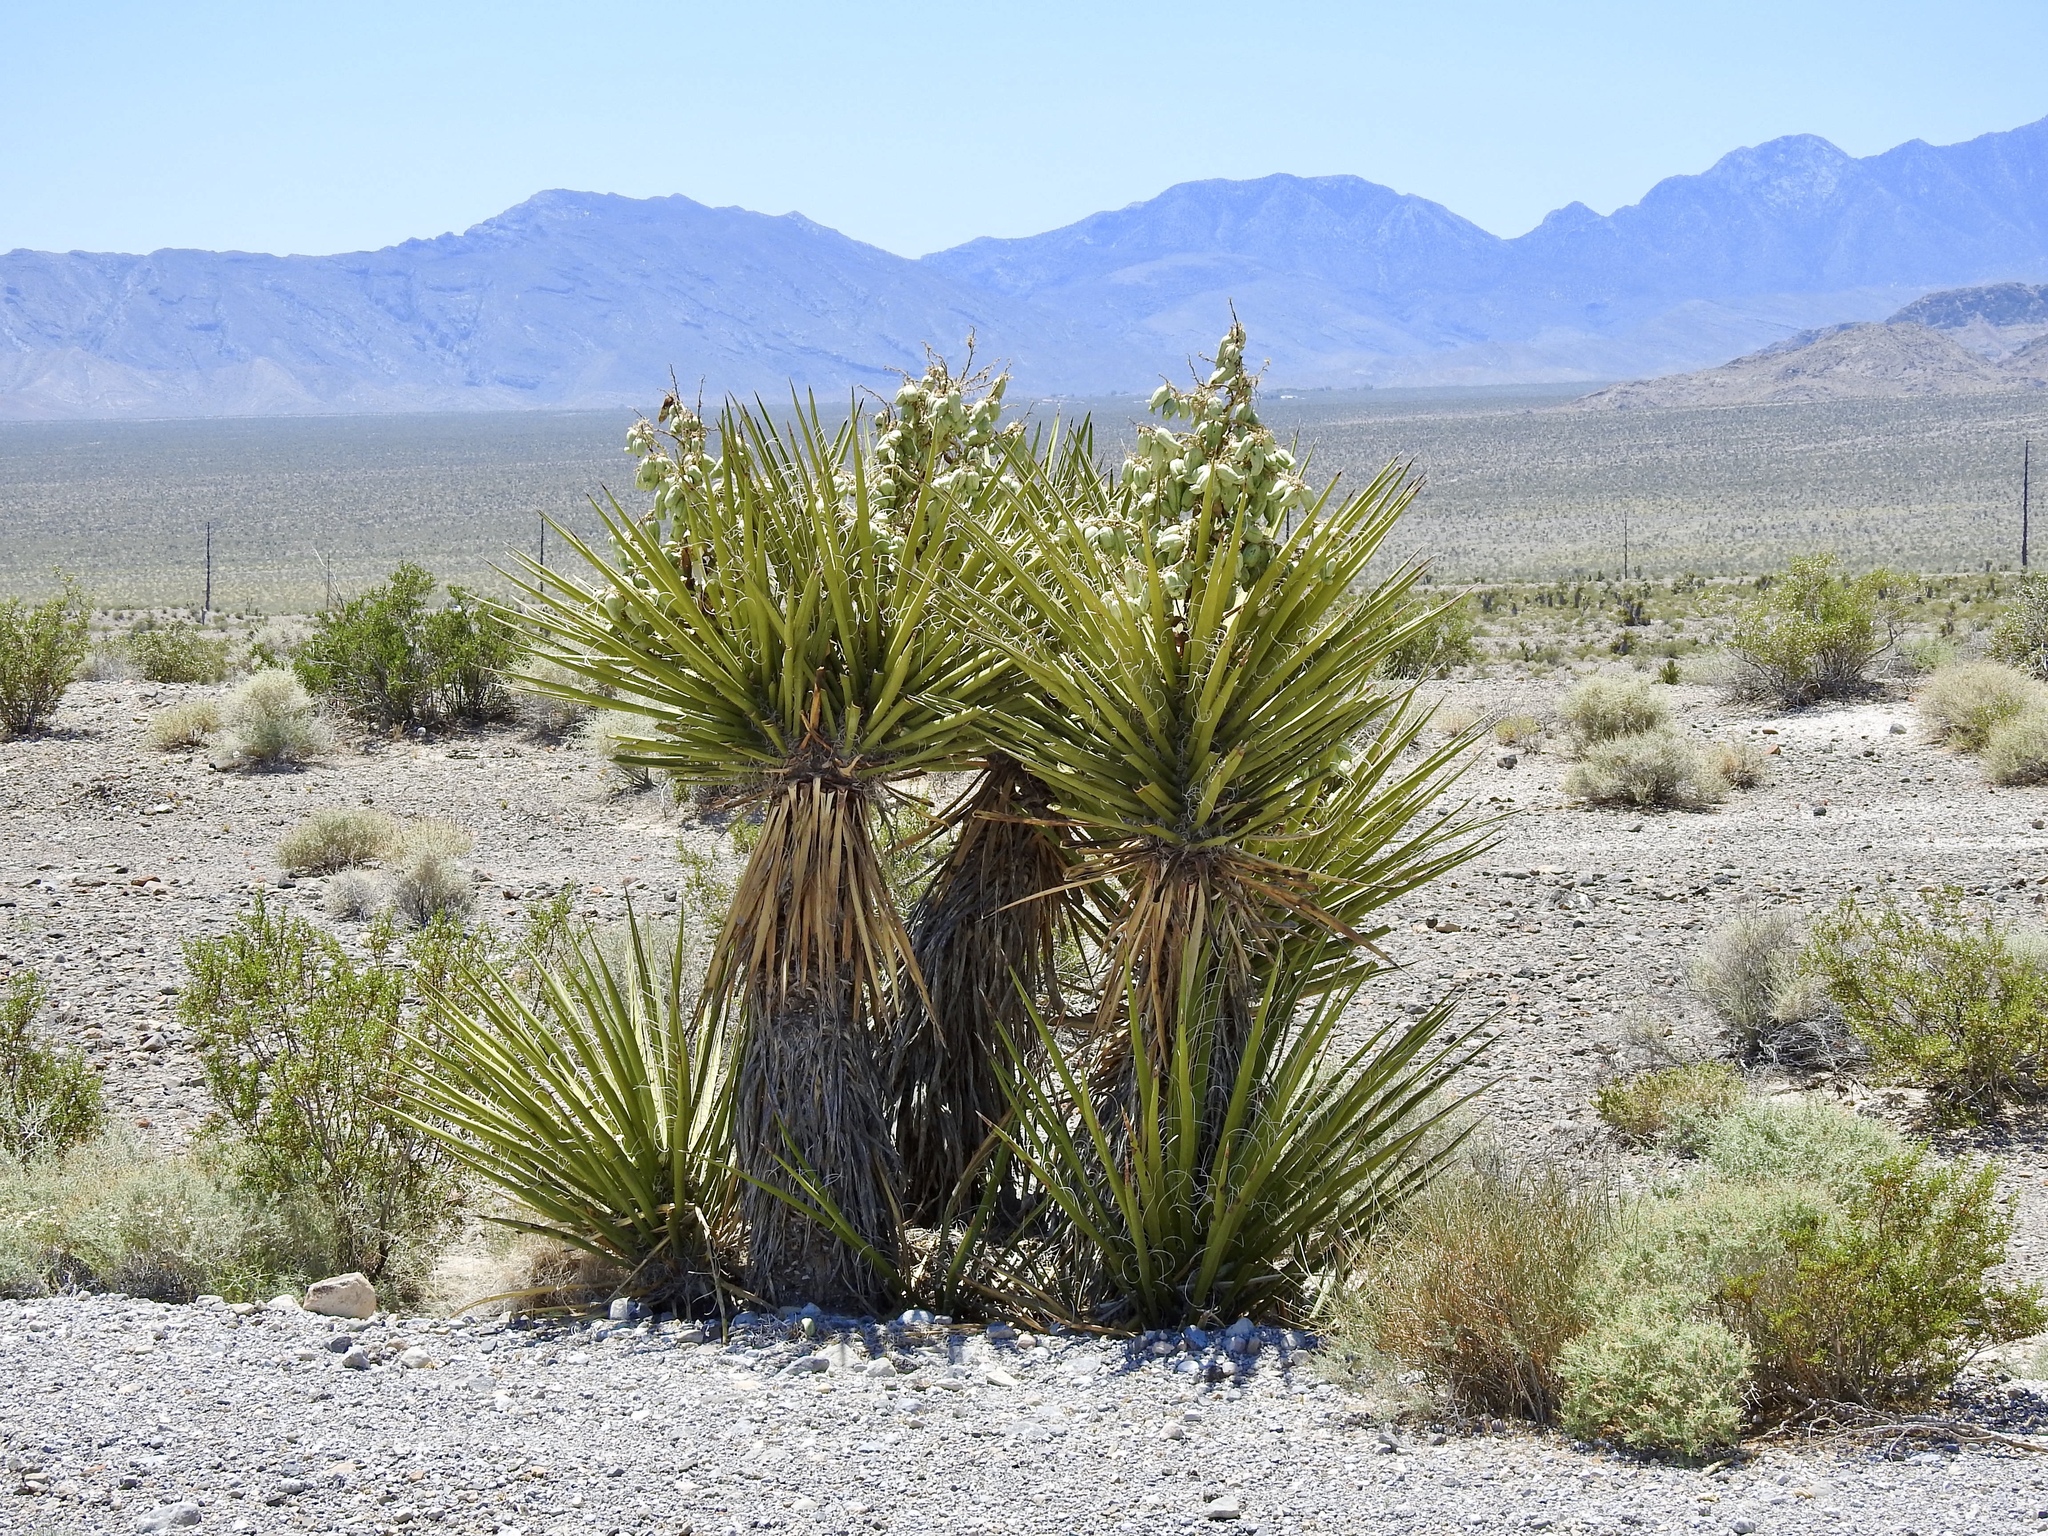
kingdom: Plantae
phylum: Tracheophyta
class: Liliopsida
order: Asparagales
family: Asparagaceae
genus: Yucca
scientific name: Yucca schidigera
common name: Mojave yucca
